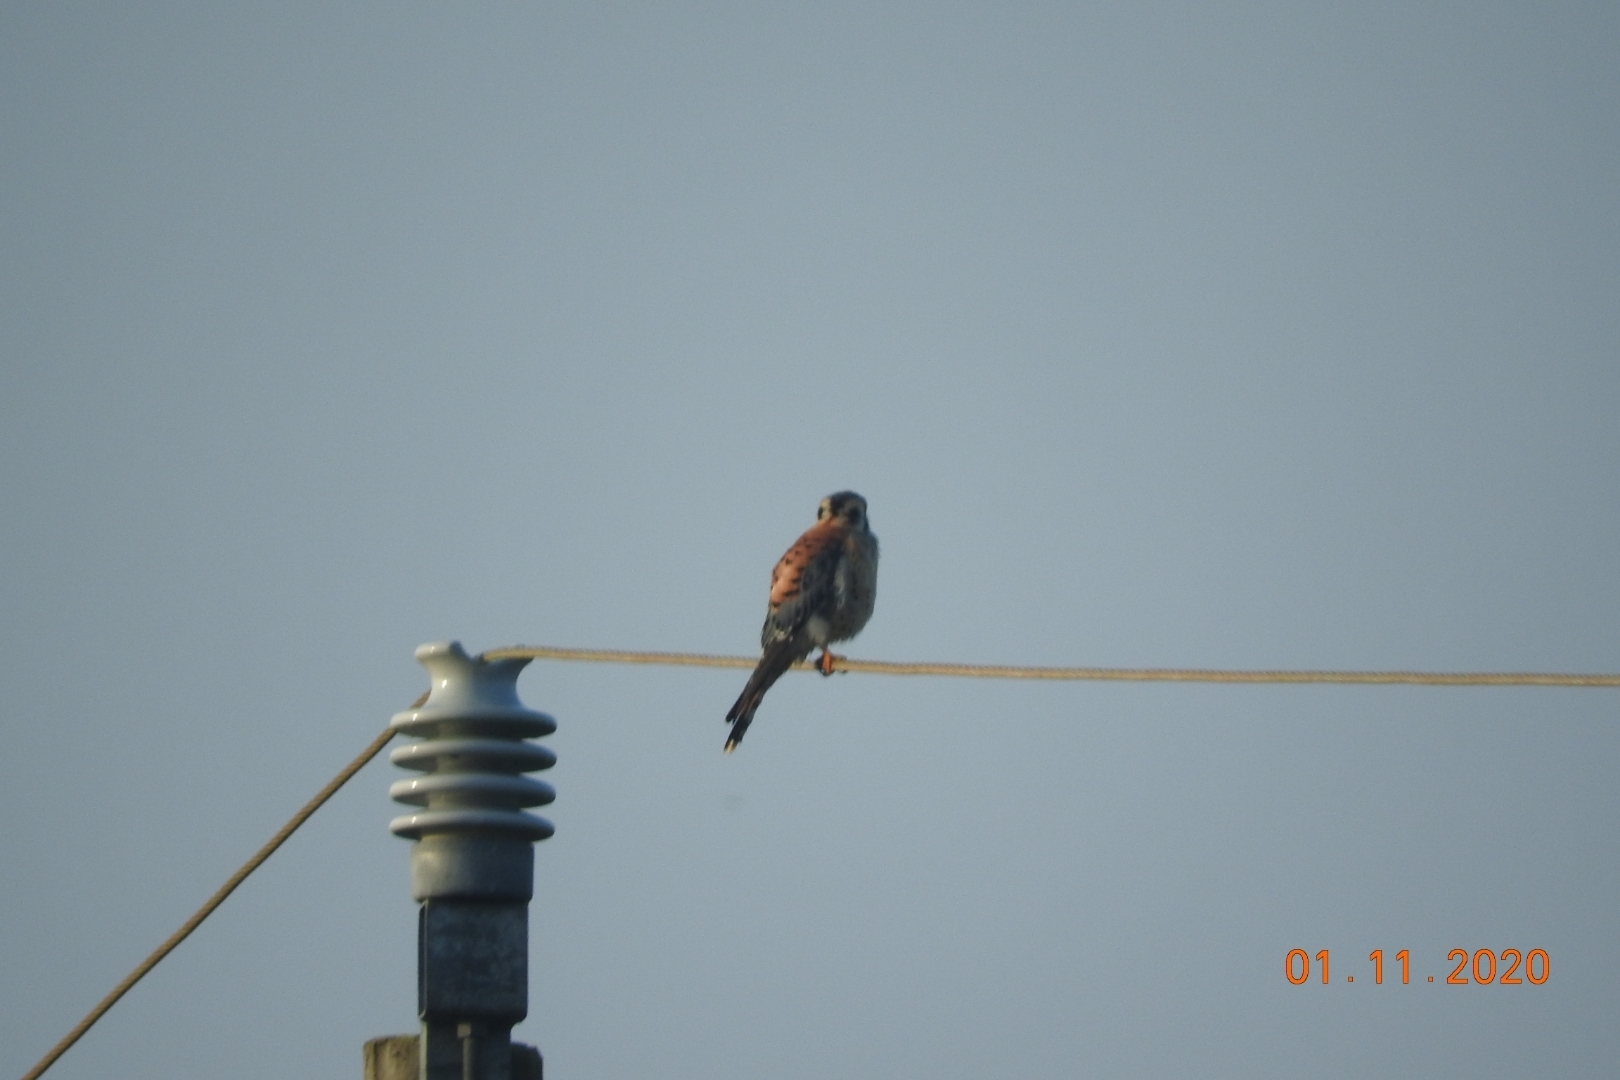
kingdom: Animalia
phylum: Chordata
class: Aves
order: Falconiformes
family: Falconidae
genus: Falco
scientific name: Falco sparverius
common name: American kestrel
